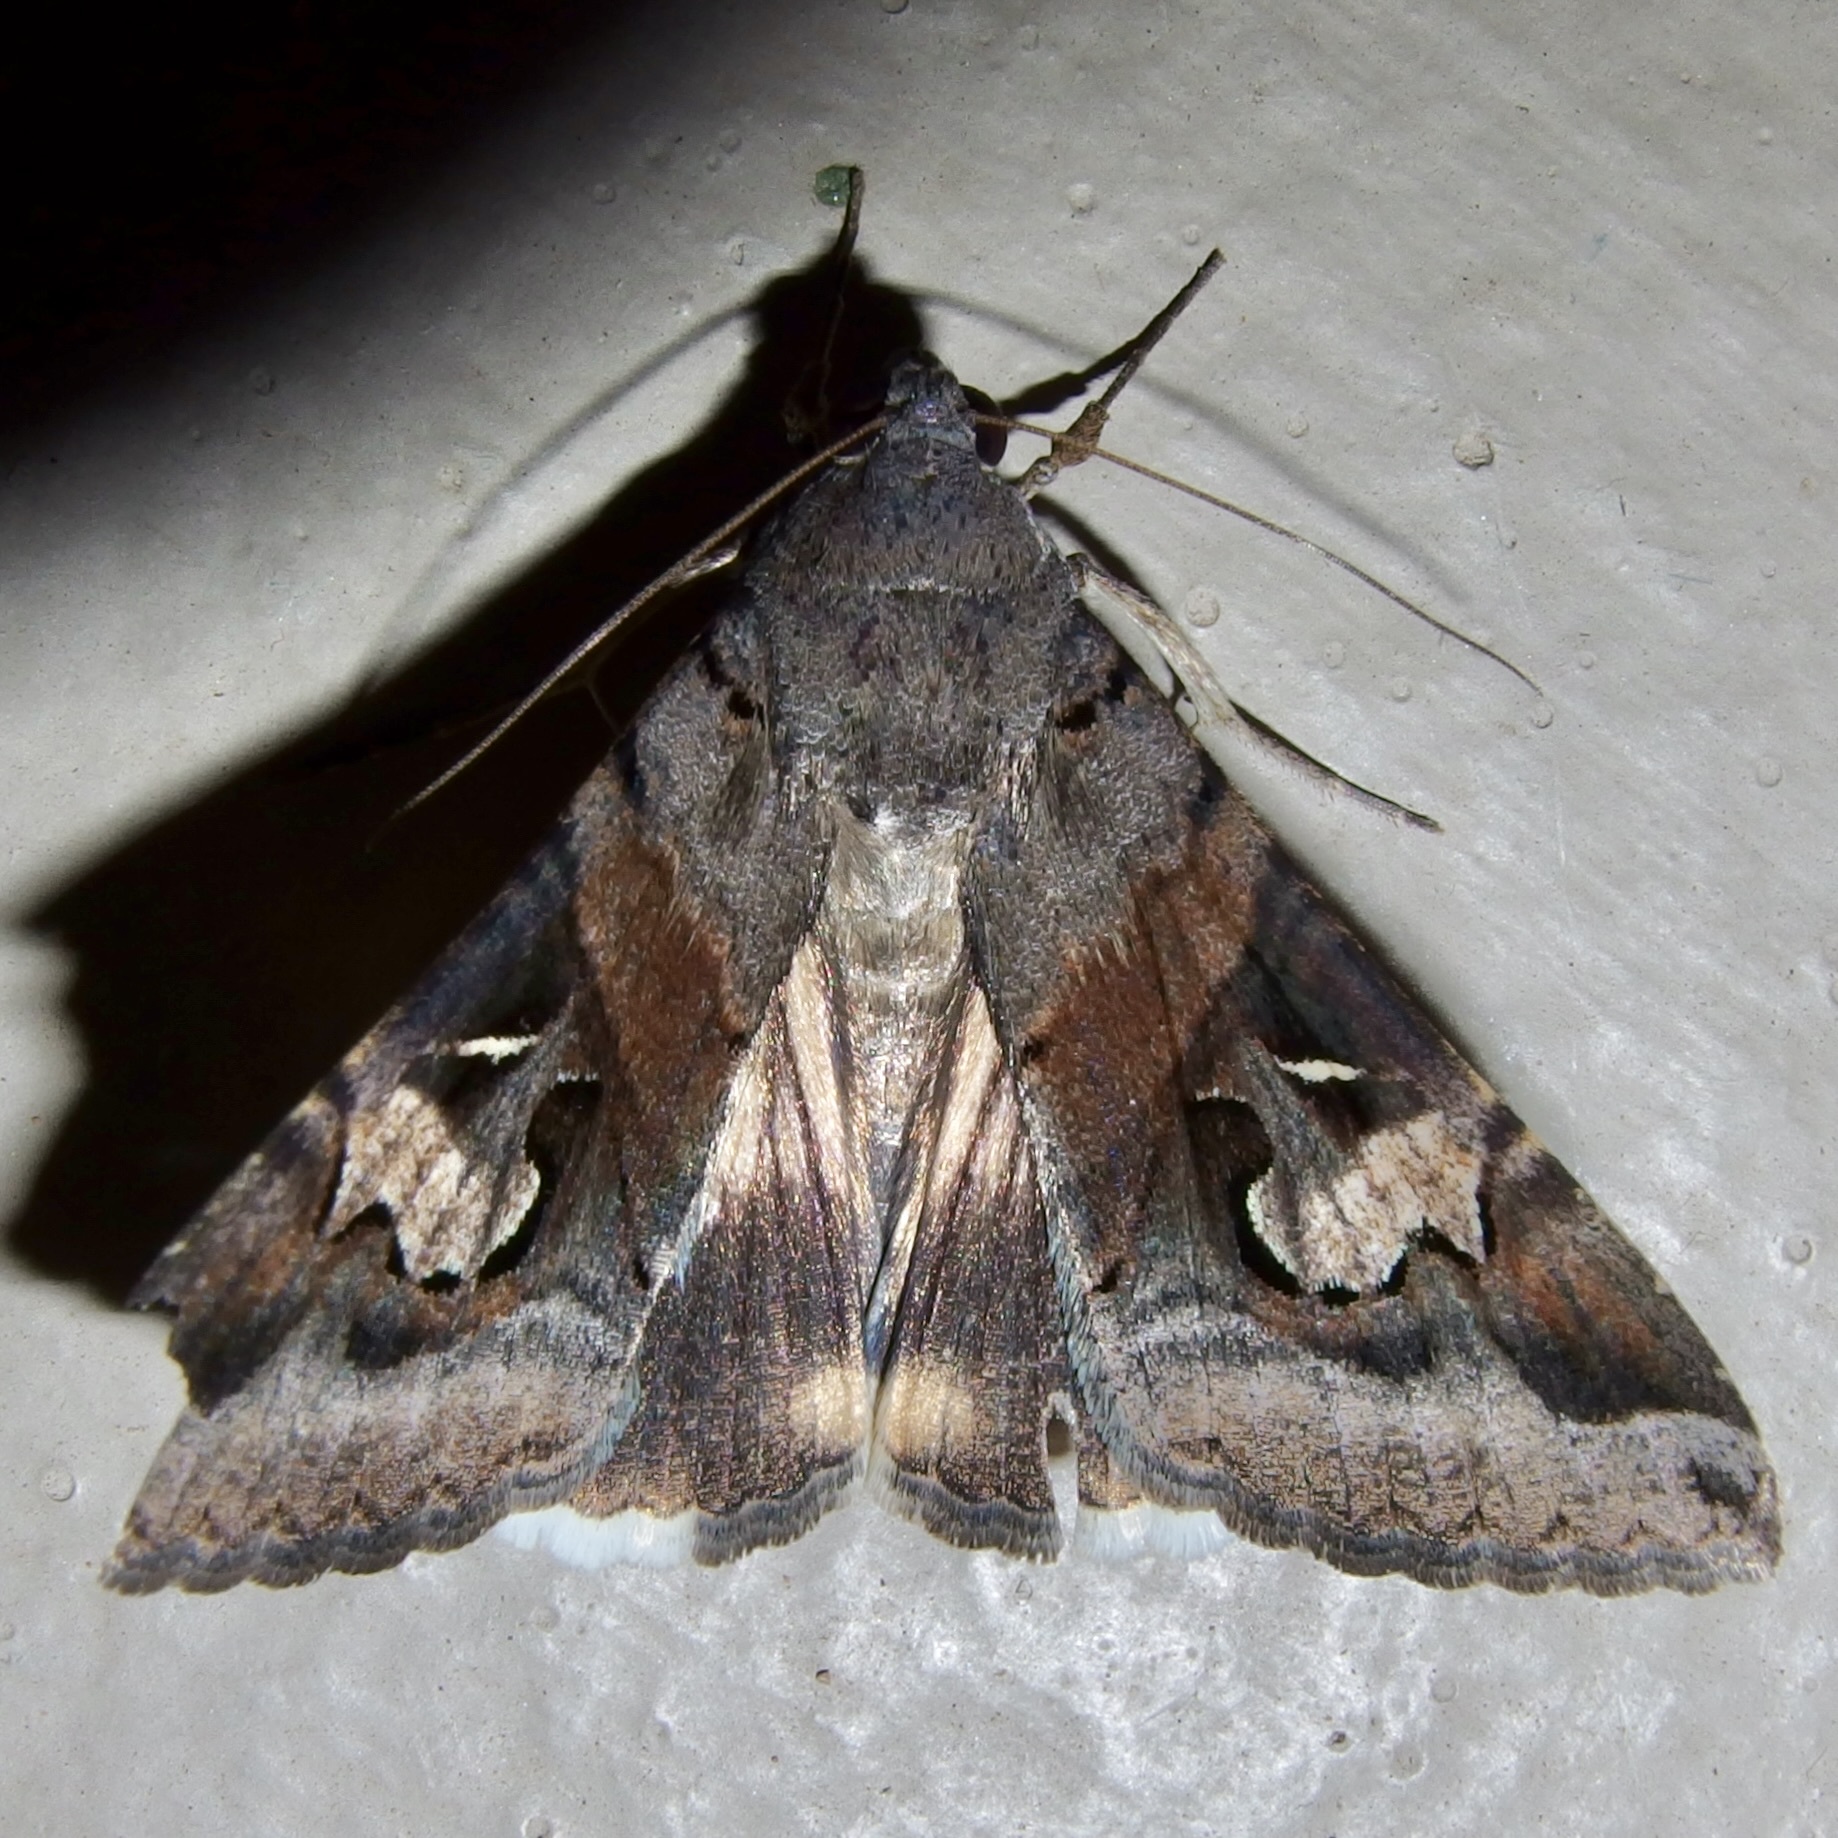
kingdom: Animalia
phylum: Arthropoda
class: Insecta
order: Lepidoptera
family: Erebidae
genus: Melipotis
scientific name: Melipotis indomita
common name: Moth
